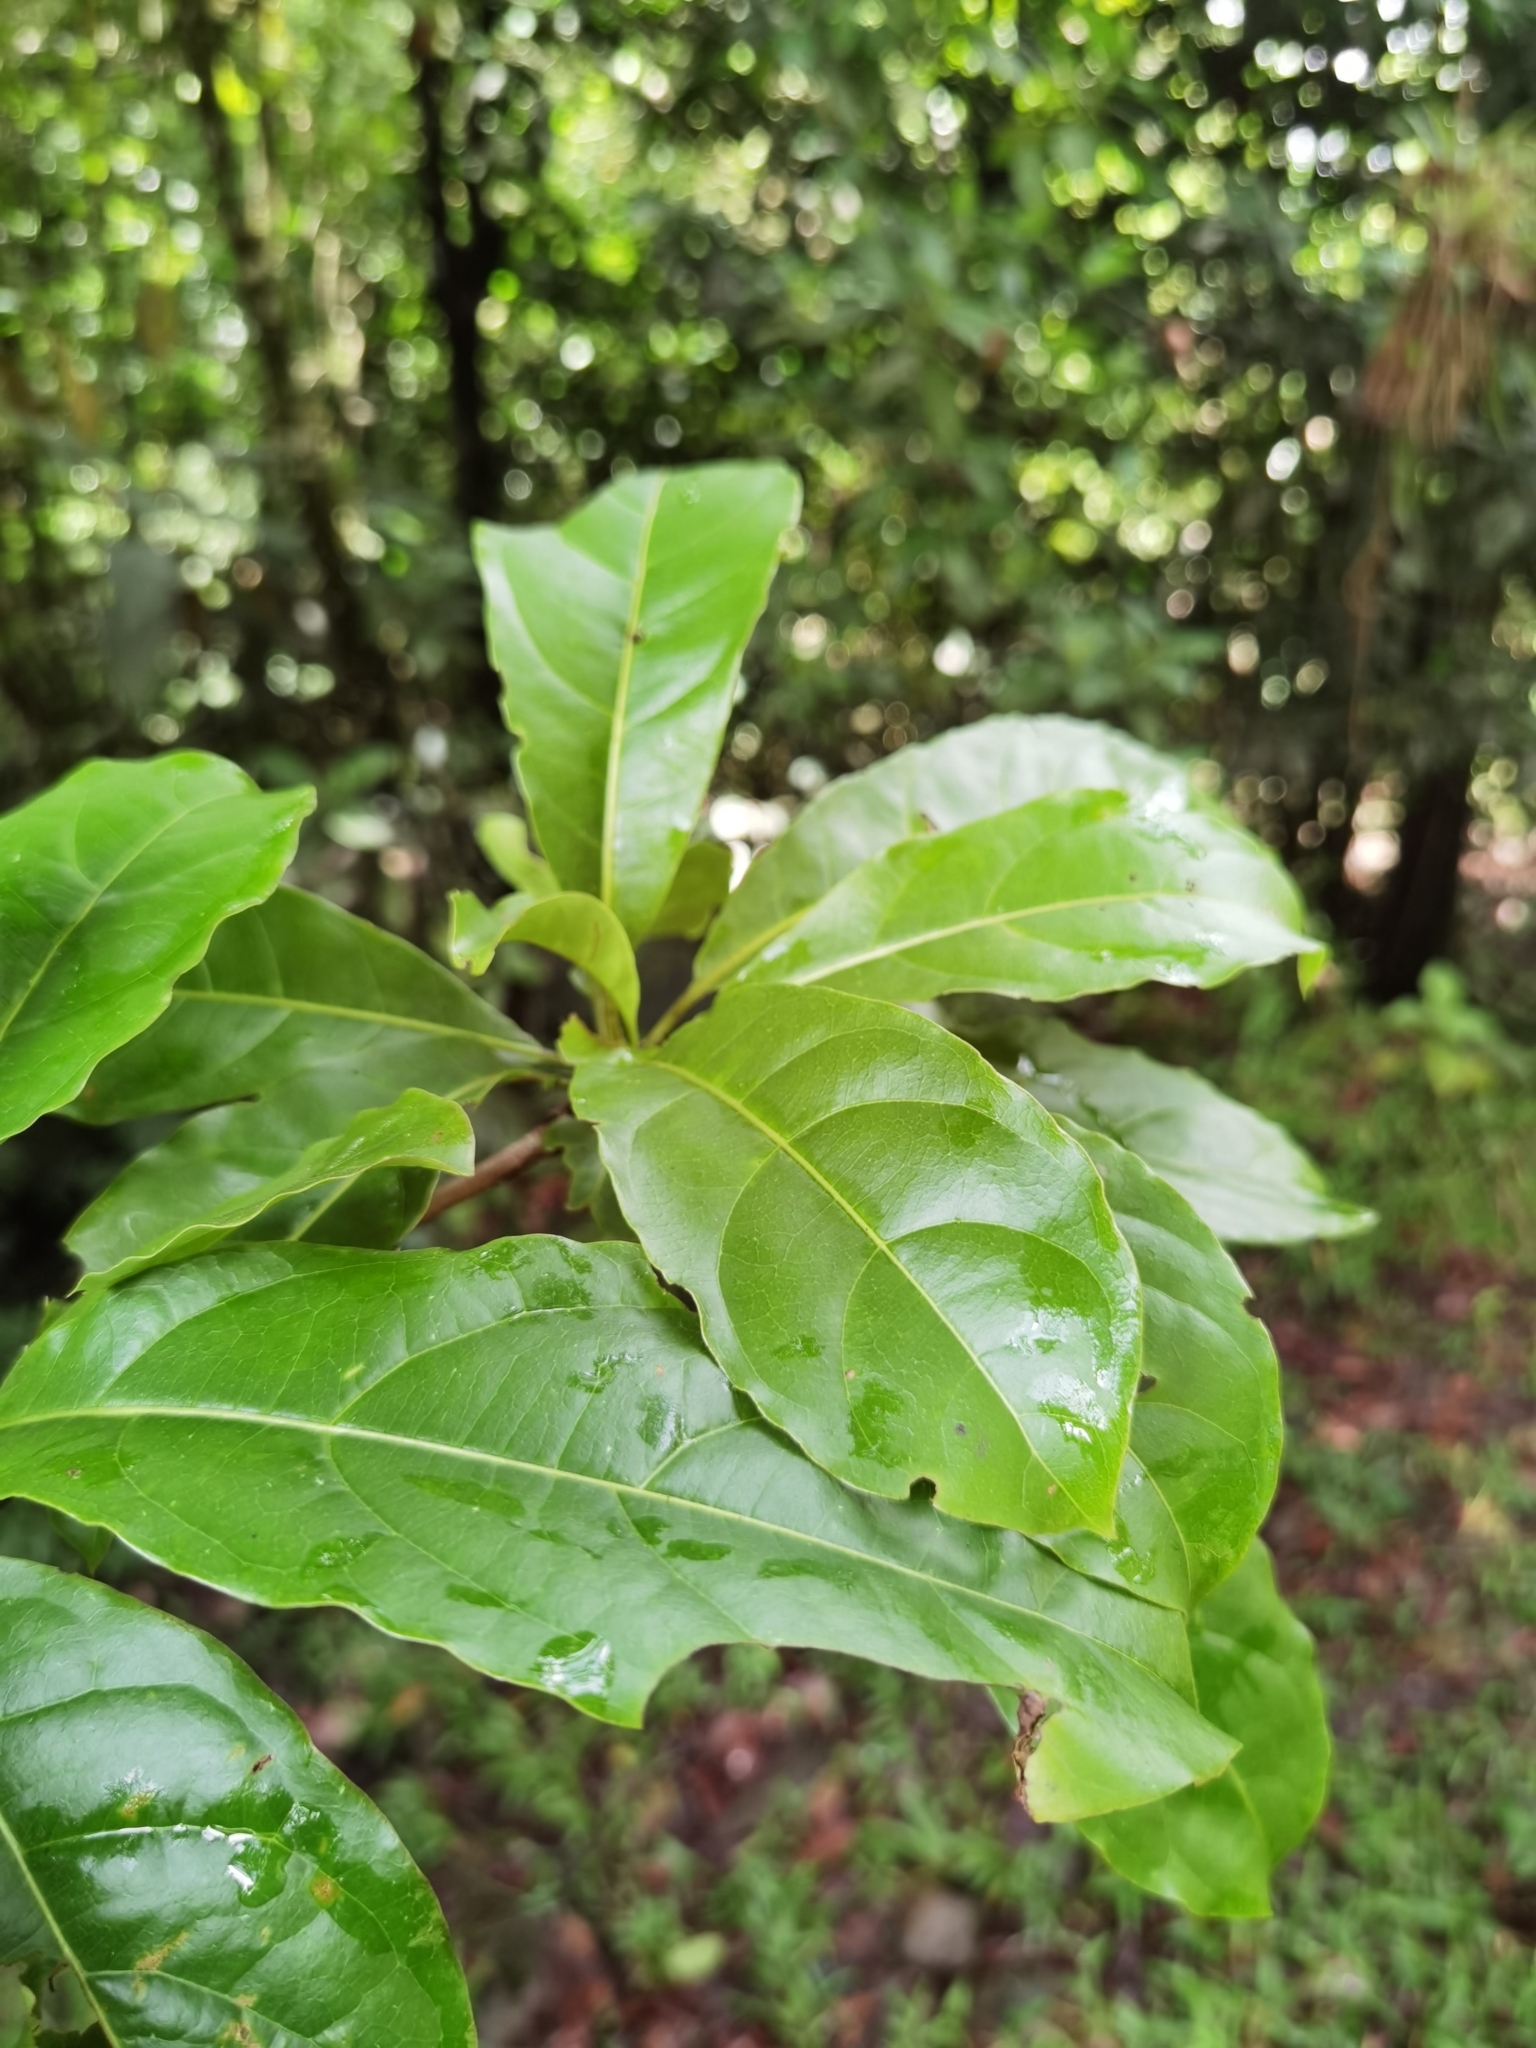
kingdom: Plantae
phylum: Tracheophyta
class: Magnoliopsida
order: Myrtales
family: Combretaceae
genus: Terminalia
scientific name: Terminalia bucidoides
